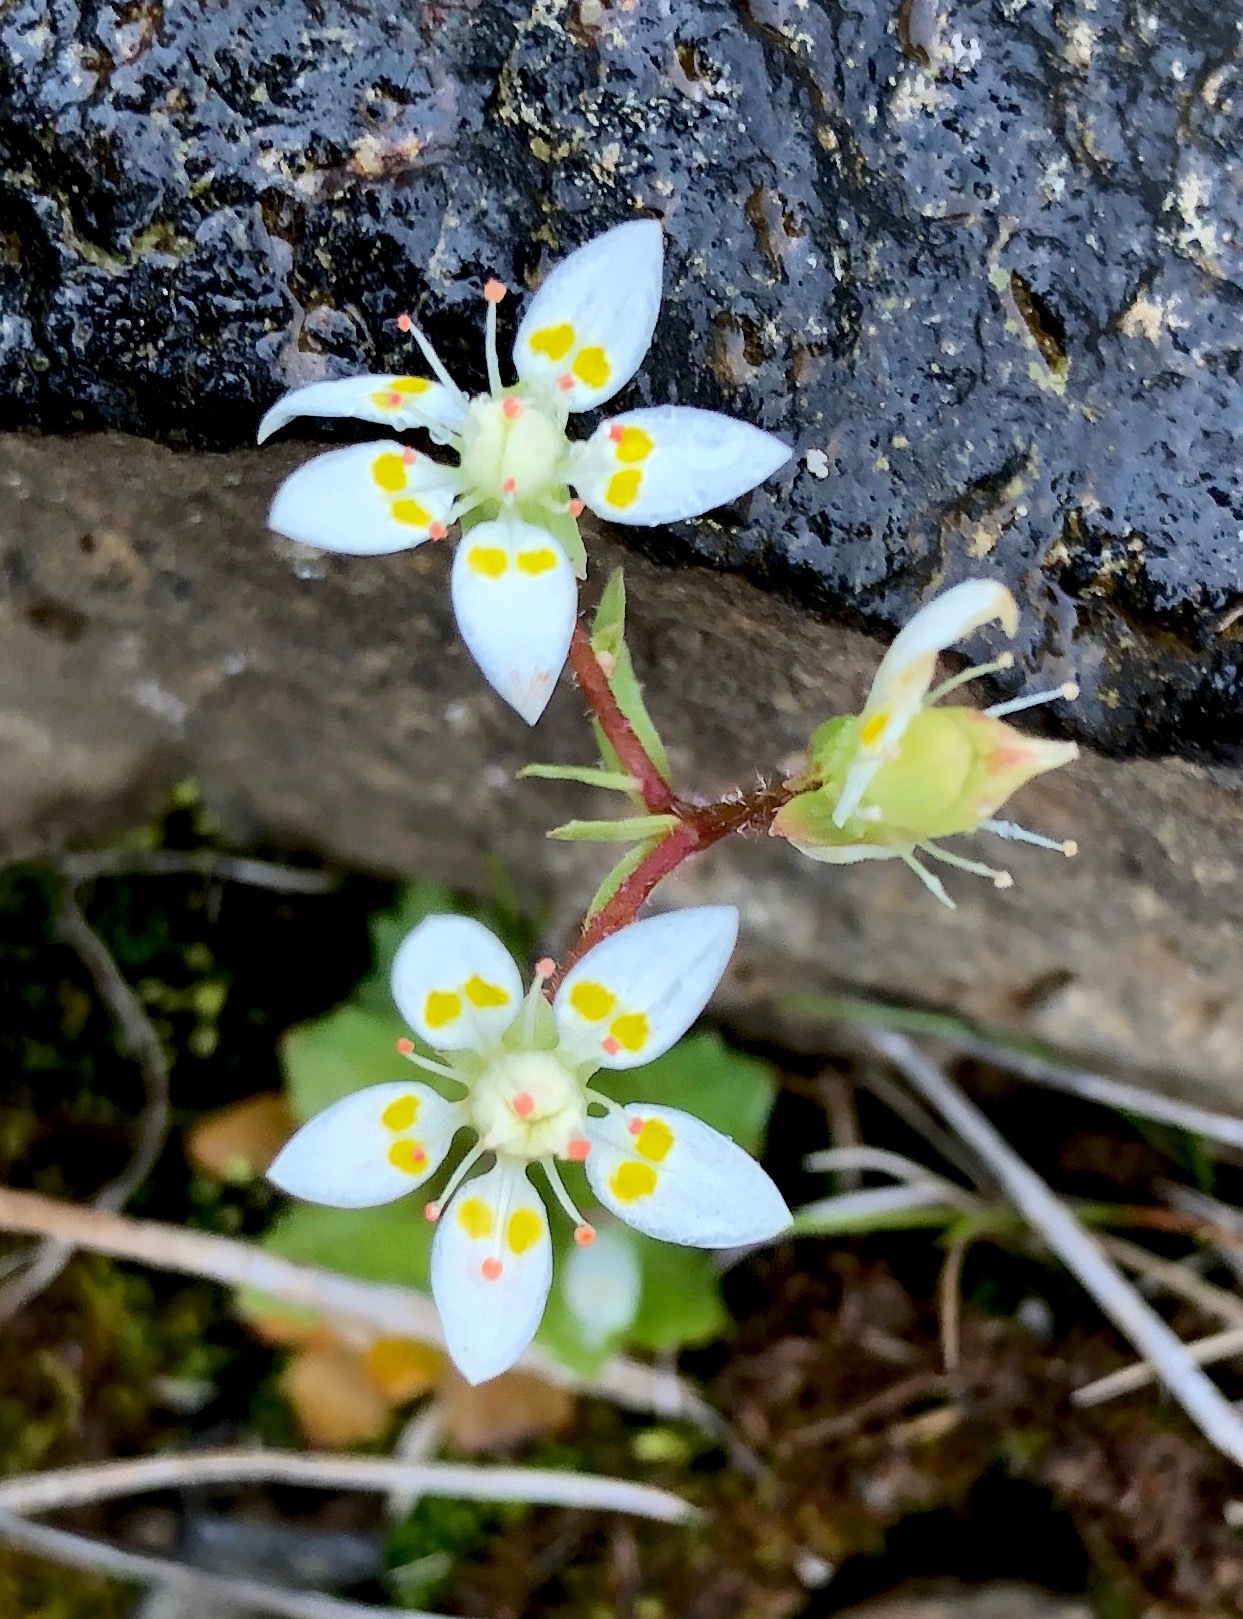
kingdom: Plantae
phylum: Tracheophyta
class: Magnoliopsida
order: Saxifragales
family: Saxifragaceae
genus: Micranthes
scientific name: Micranthes stellaris
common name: Starry saxifrage
